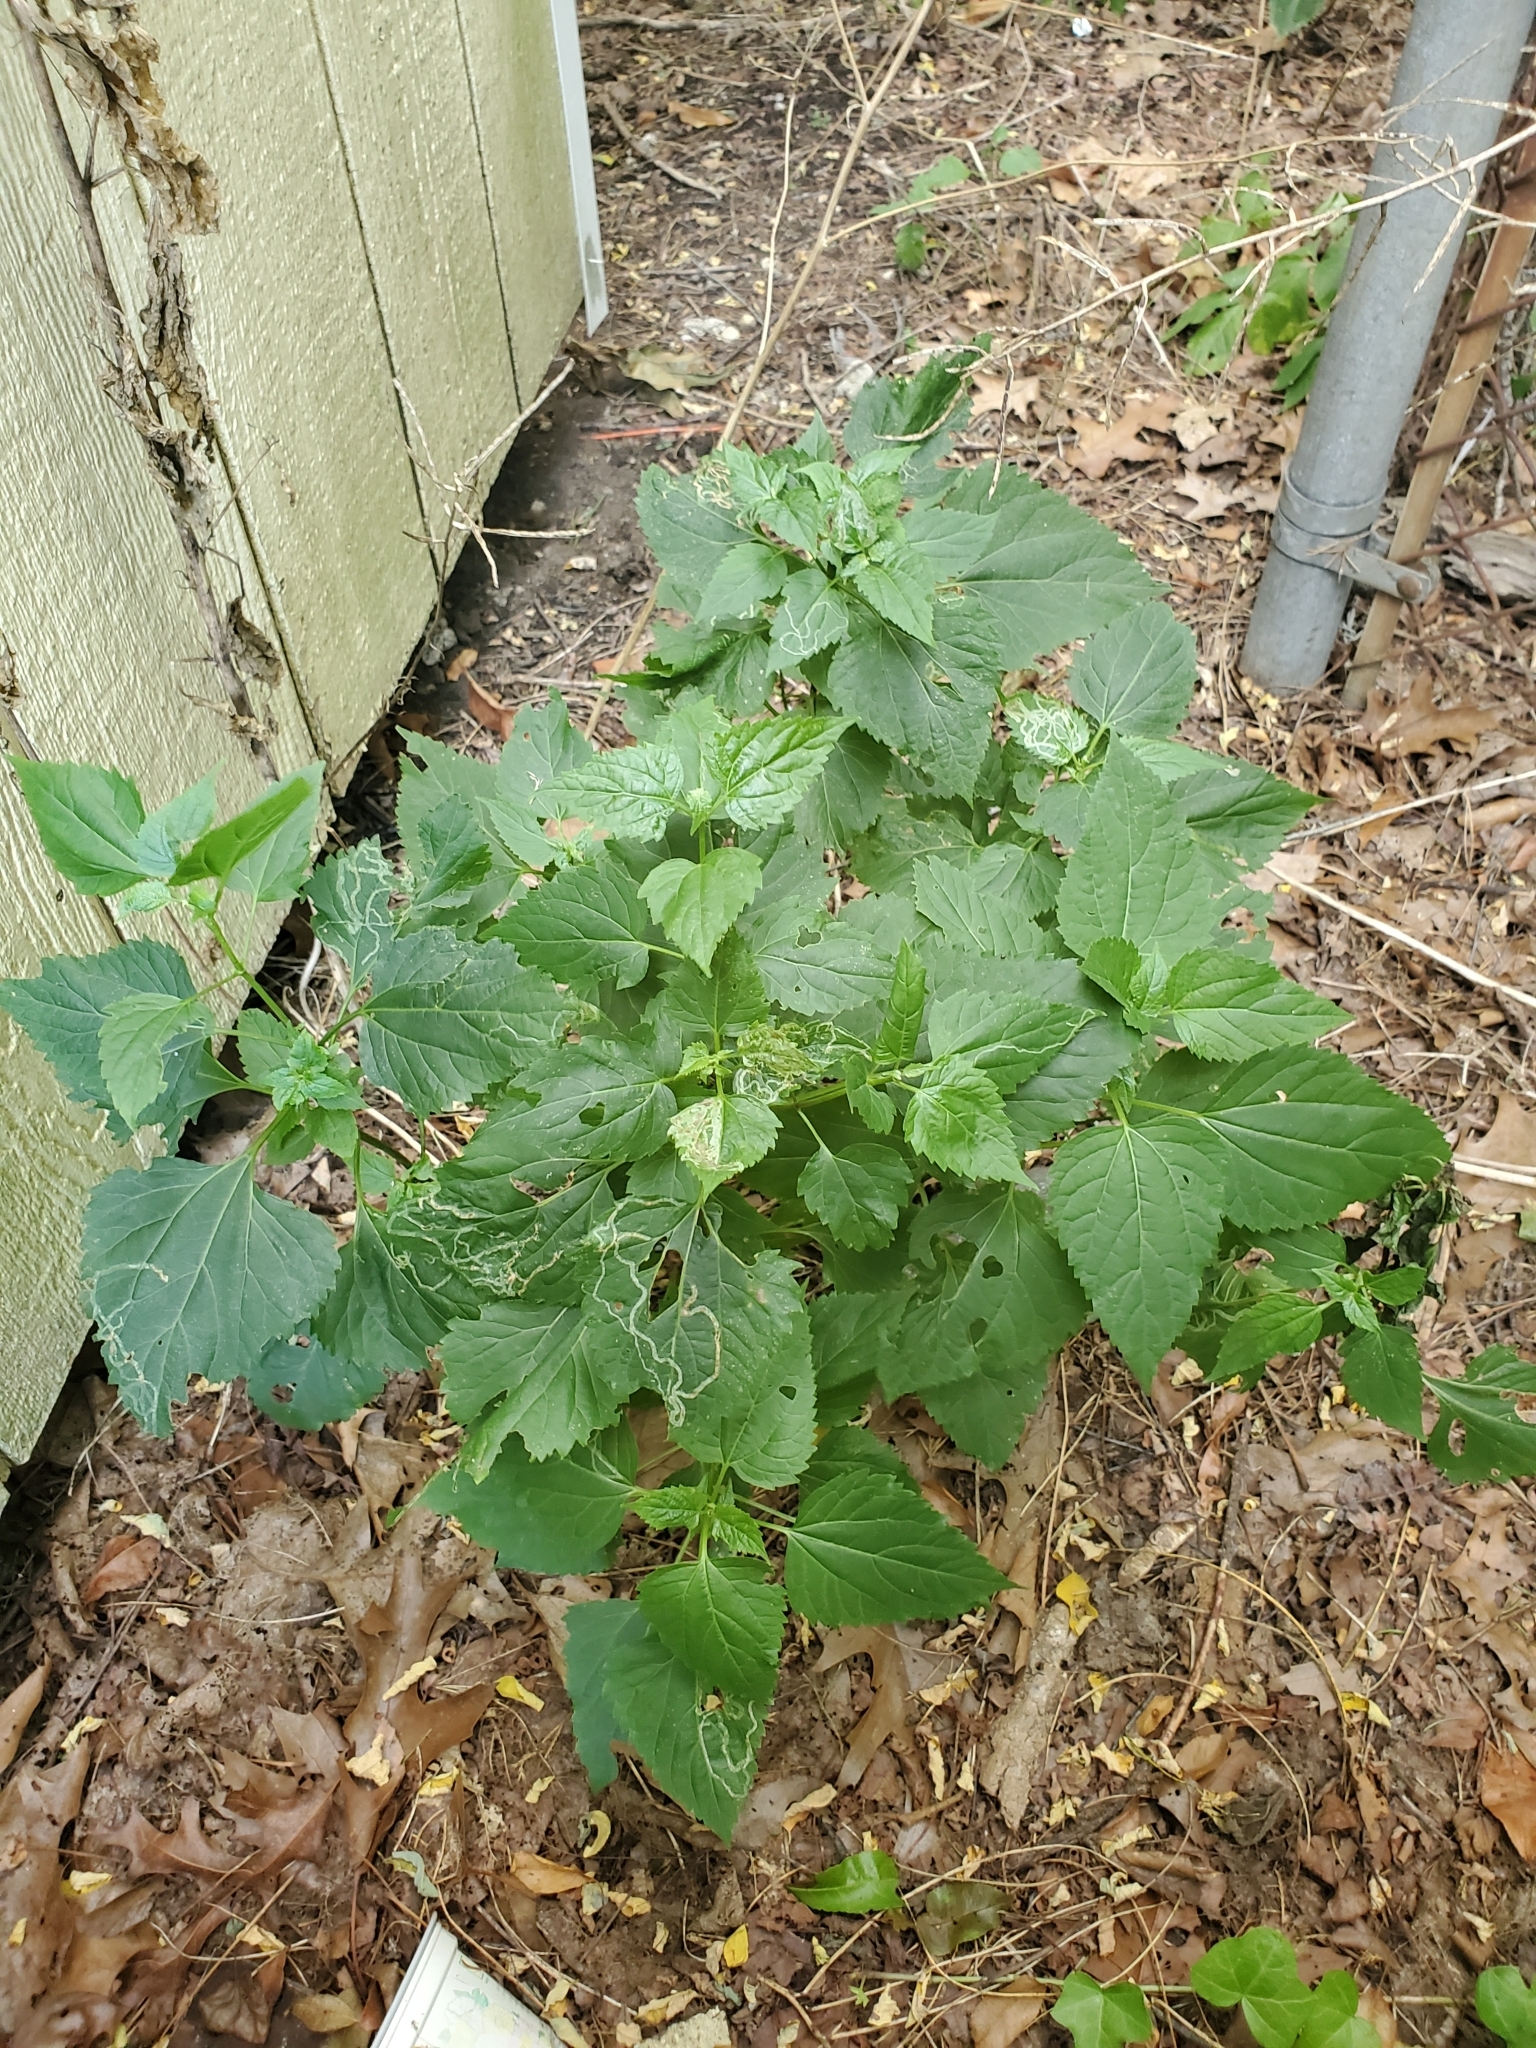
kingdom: Plantae
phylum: Tracheophyta
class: Magnoliopsida
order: Asterales
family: Asteraceae
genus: Ageratina
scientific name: Ageratina altissima
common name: White snakeroot
